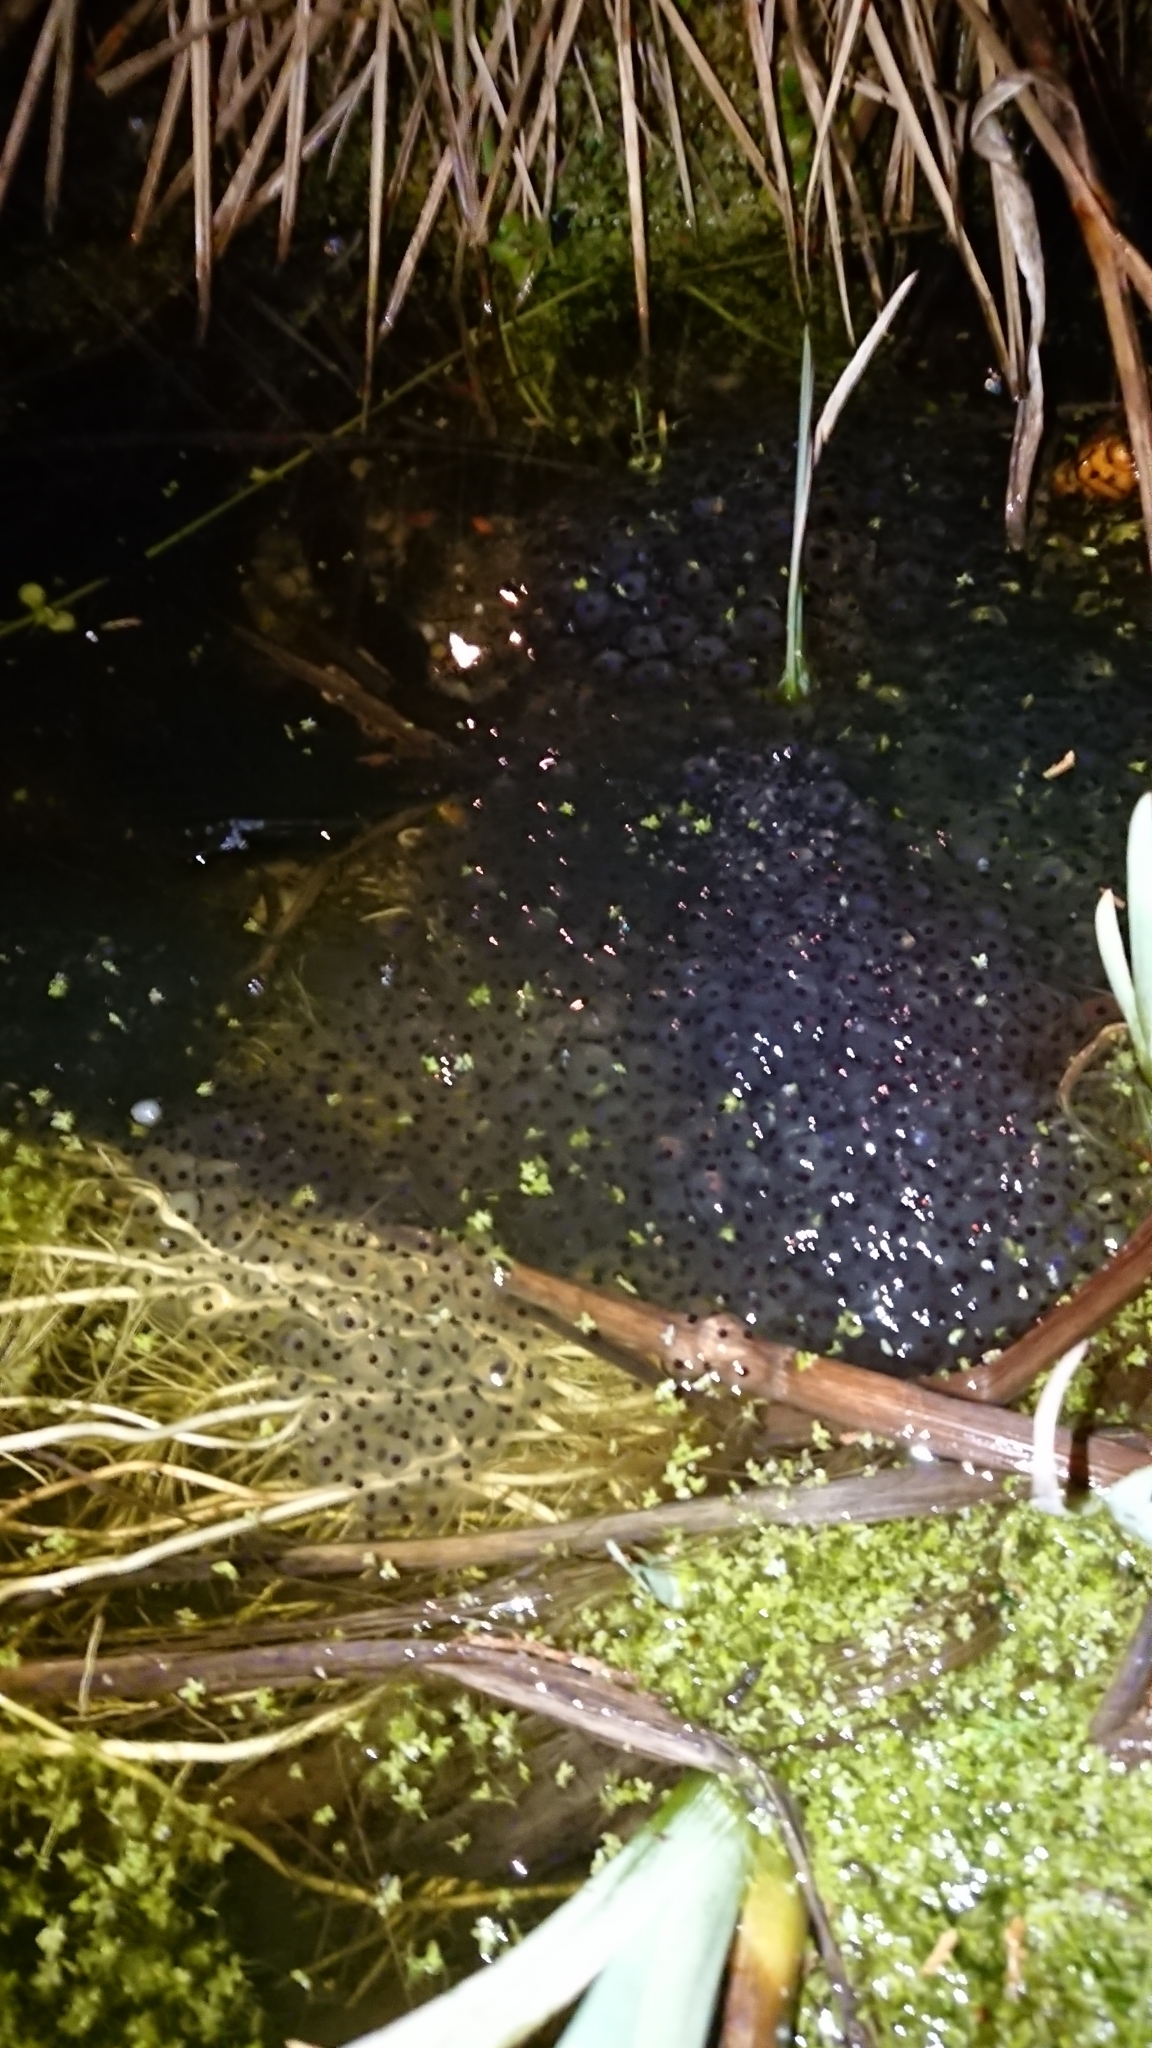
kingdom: Animalia
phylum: Chordata
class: Amphibia
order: Anura
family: Ranidae
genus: Rana
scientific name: Rana temporaria
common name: Common frog
